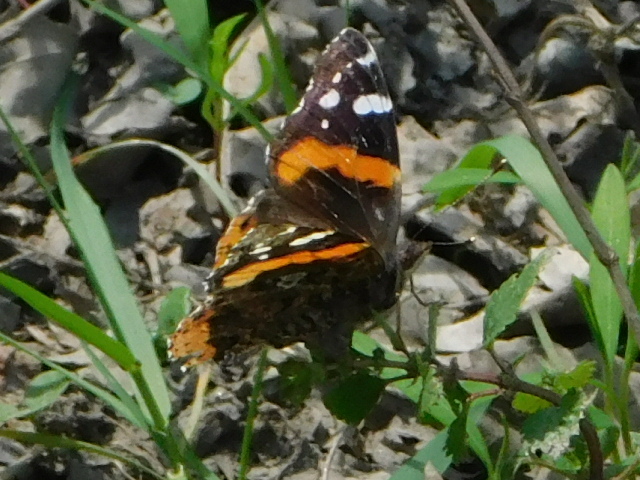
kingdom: Animalia
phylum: Arthropoda
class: Insecta
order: Lepidoptera
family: Nymphalidae
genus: Vanessa
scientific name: Vanessa atalanta
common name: Red admiral
